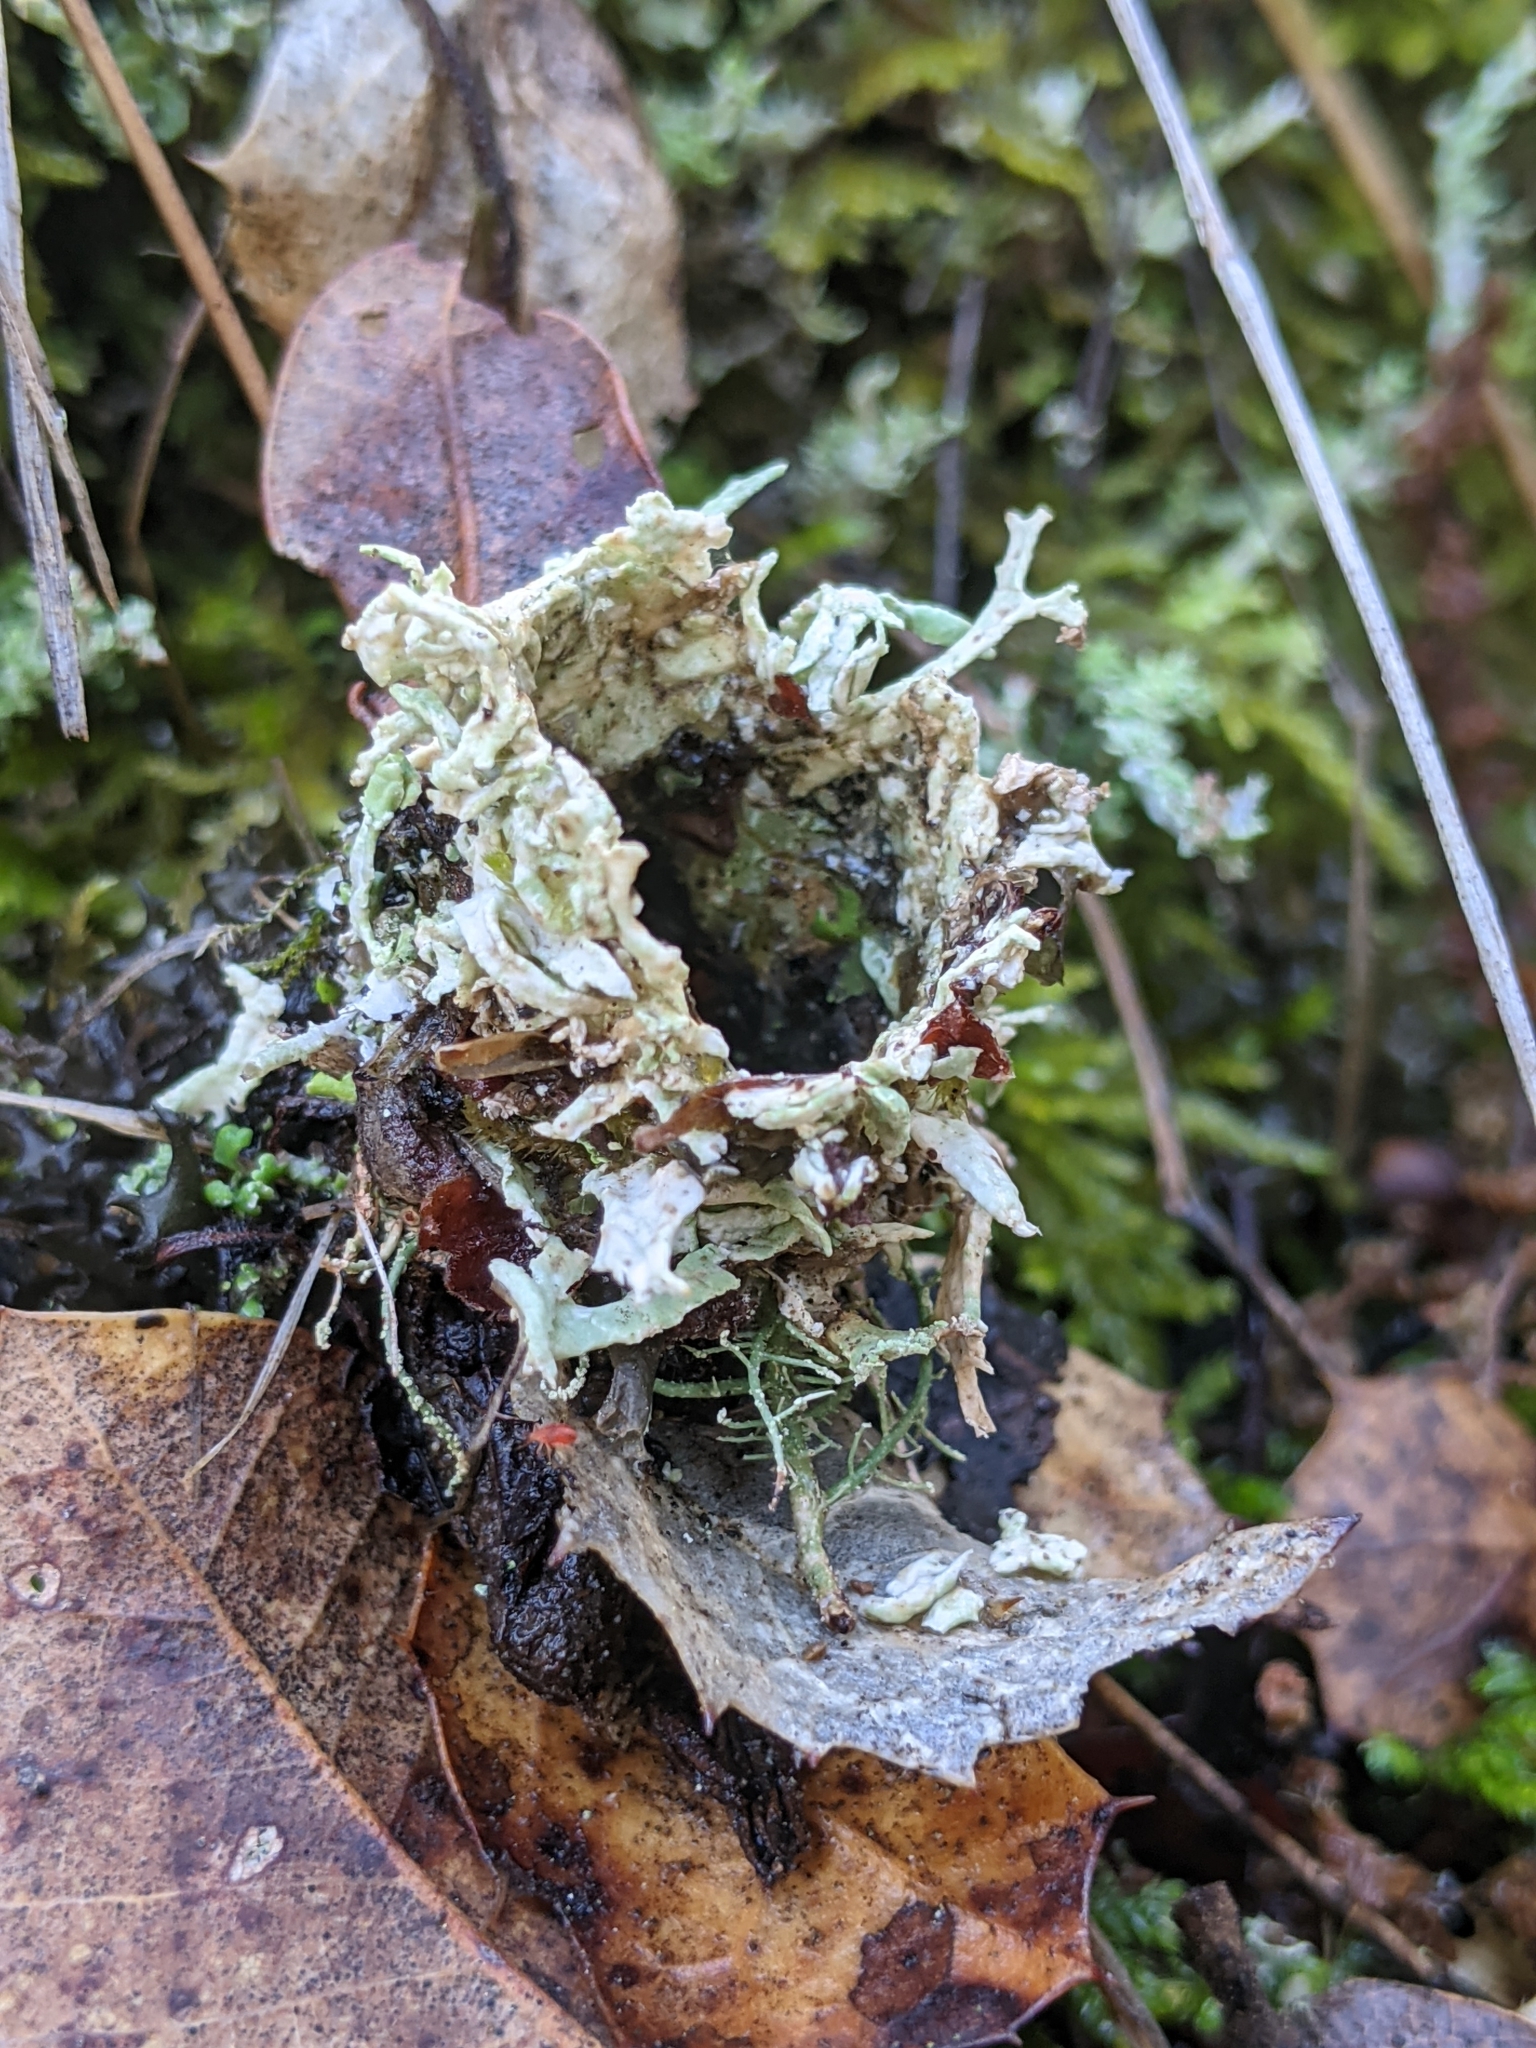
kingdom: Animalia
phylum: Arthropoda
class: Arachnida
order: Araneae
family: Antrodiaetidae
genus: Atypoides
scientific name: Atypoides riversi
